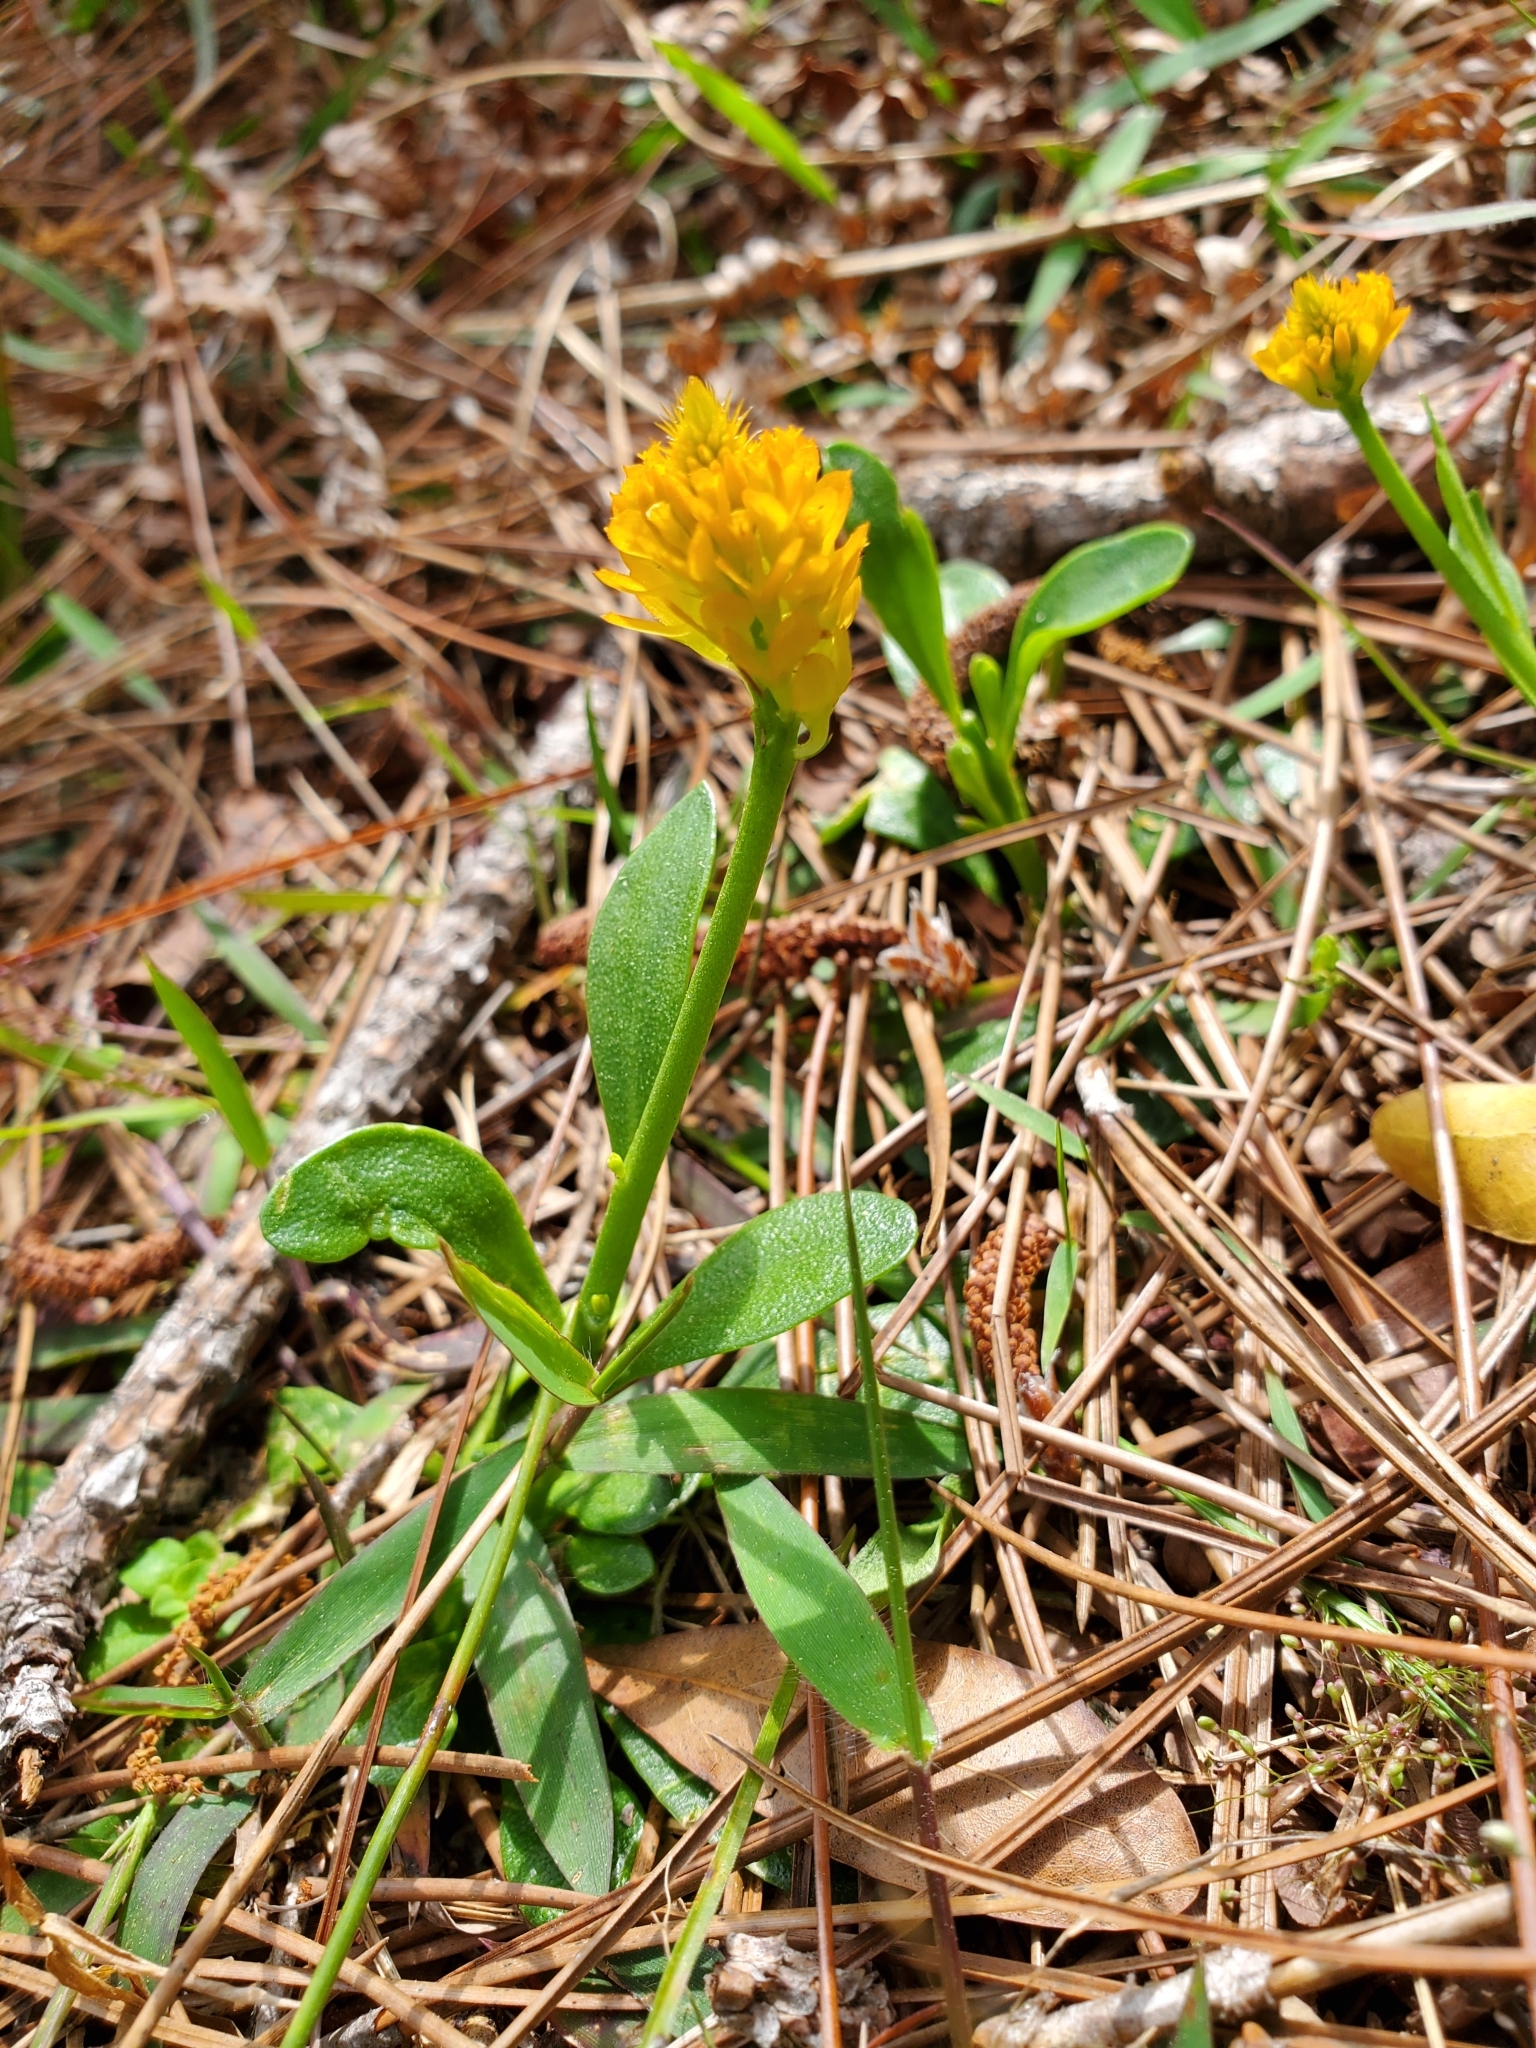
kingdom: Plantae
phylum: Tracheophyta
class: Magnoliopsida
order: Fabales
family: Polygalaceae
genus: Polygala
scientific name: Polygala lutea
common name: Orange milkwort
